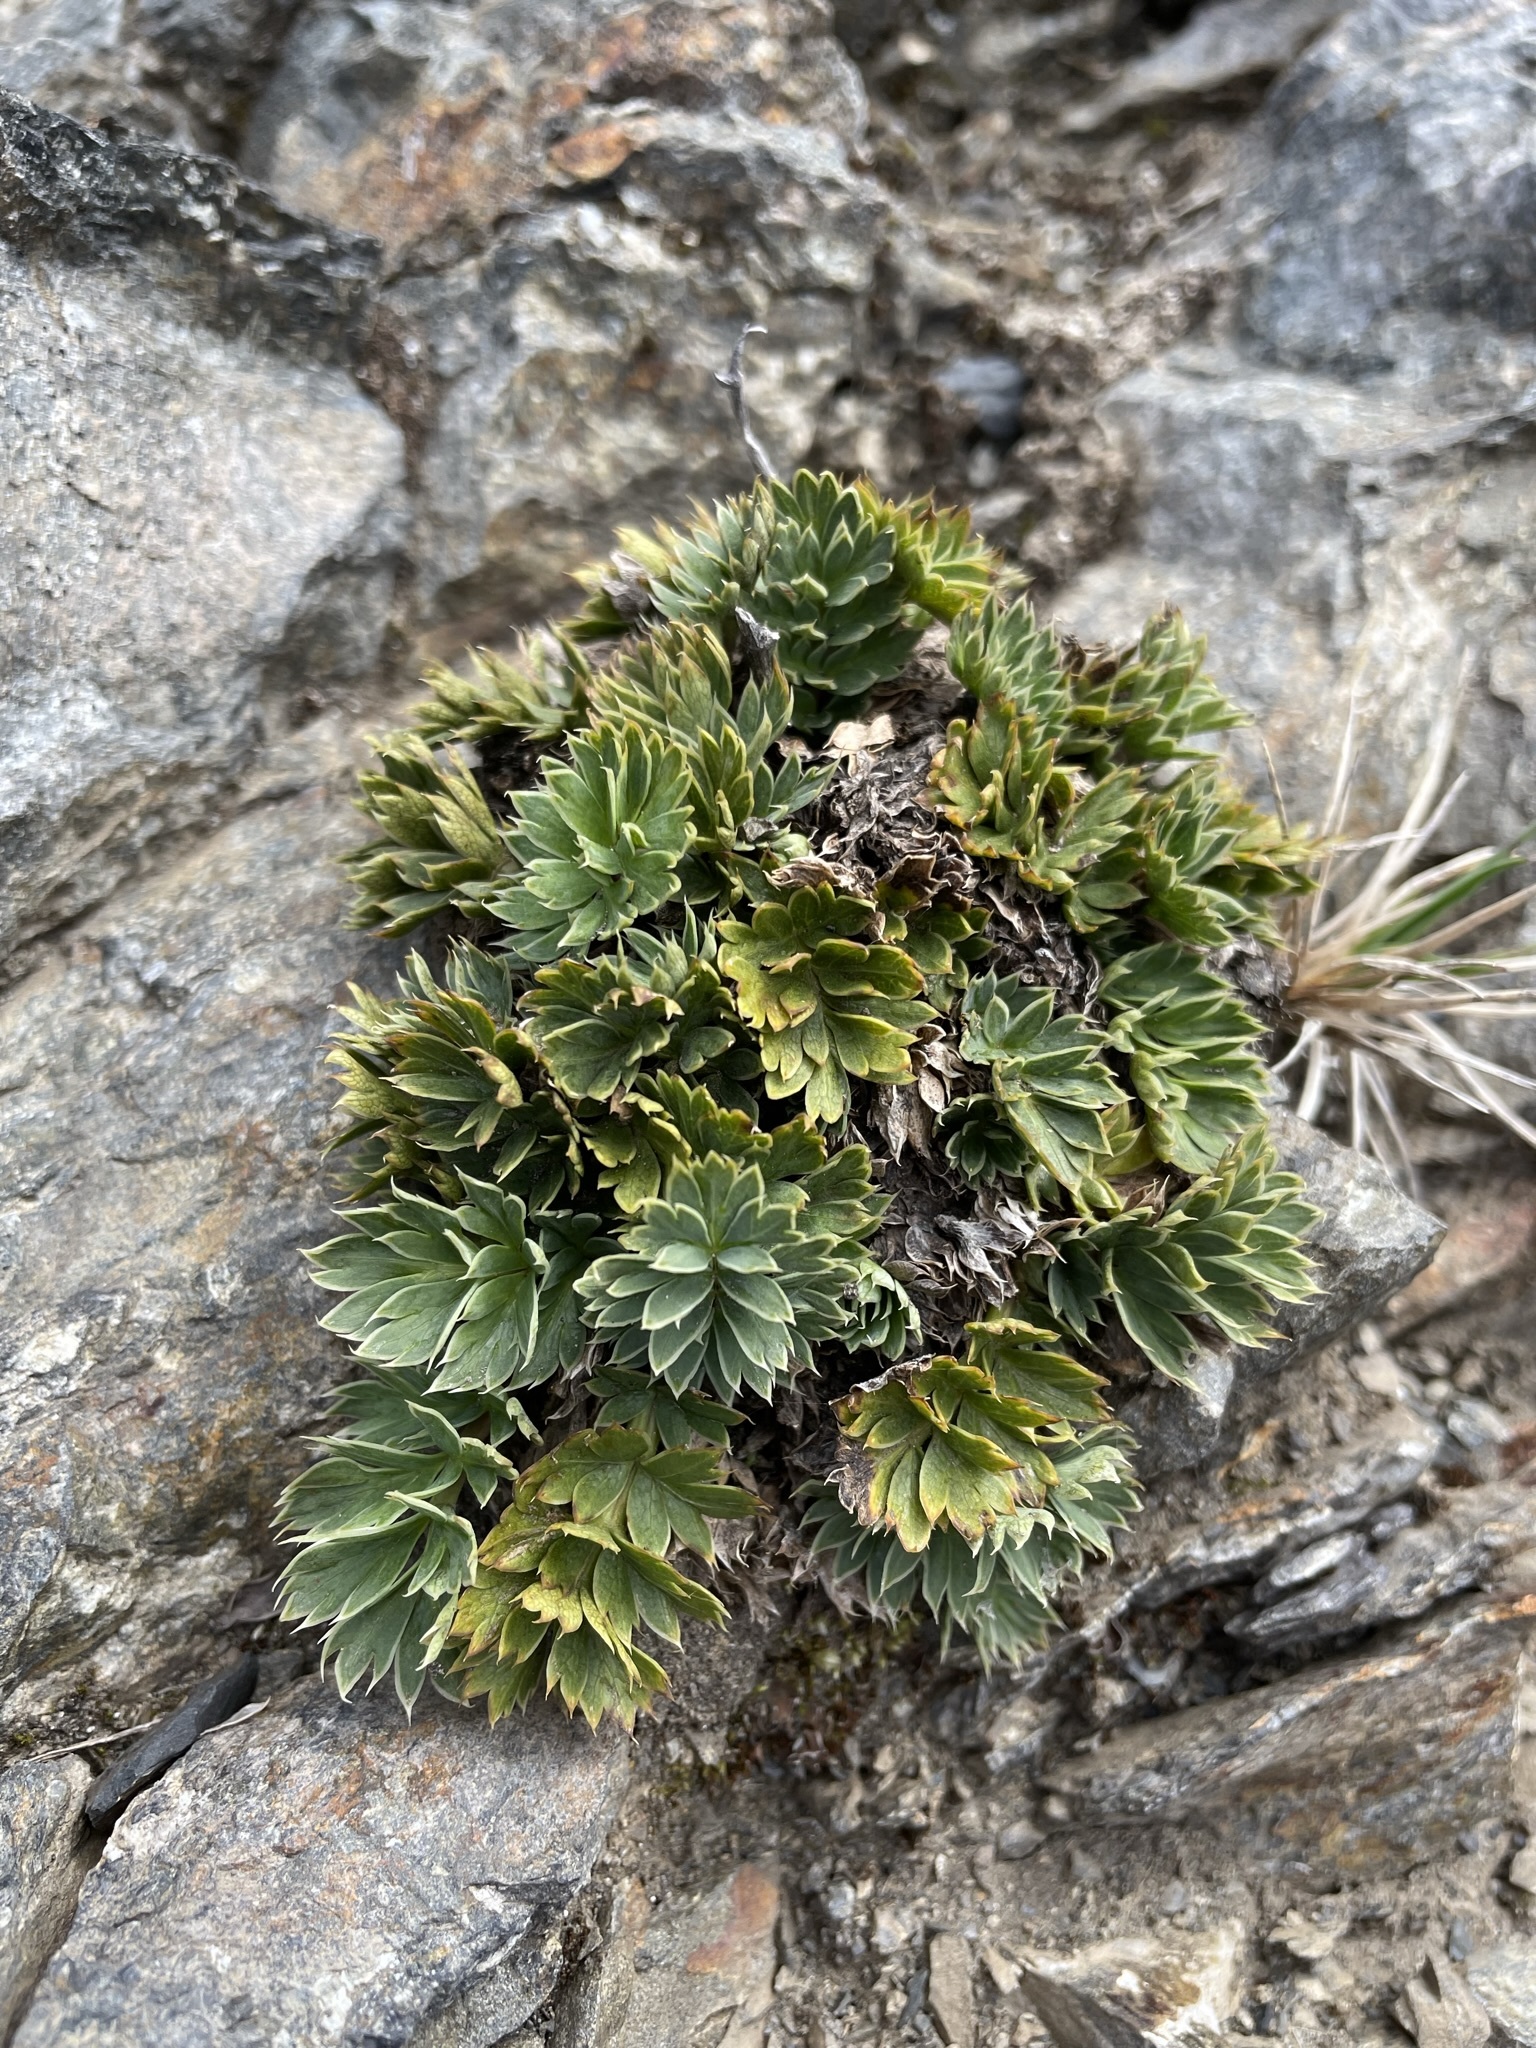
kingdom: Plantae
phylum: Tracheophyta
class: Magnoliopsida
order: Apiales
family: Apiaceae
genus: Anisotome
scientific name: Anisotome pilifera
